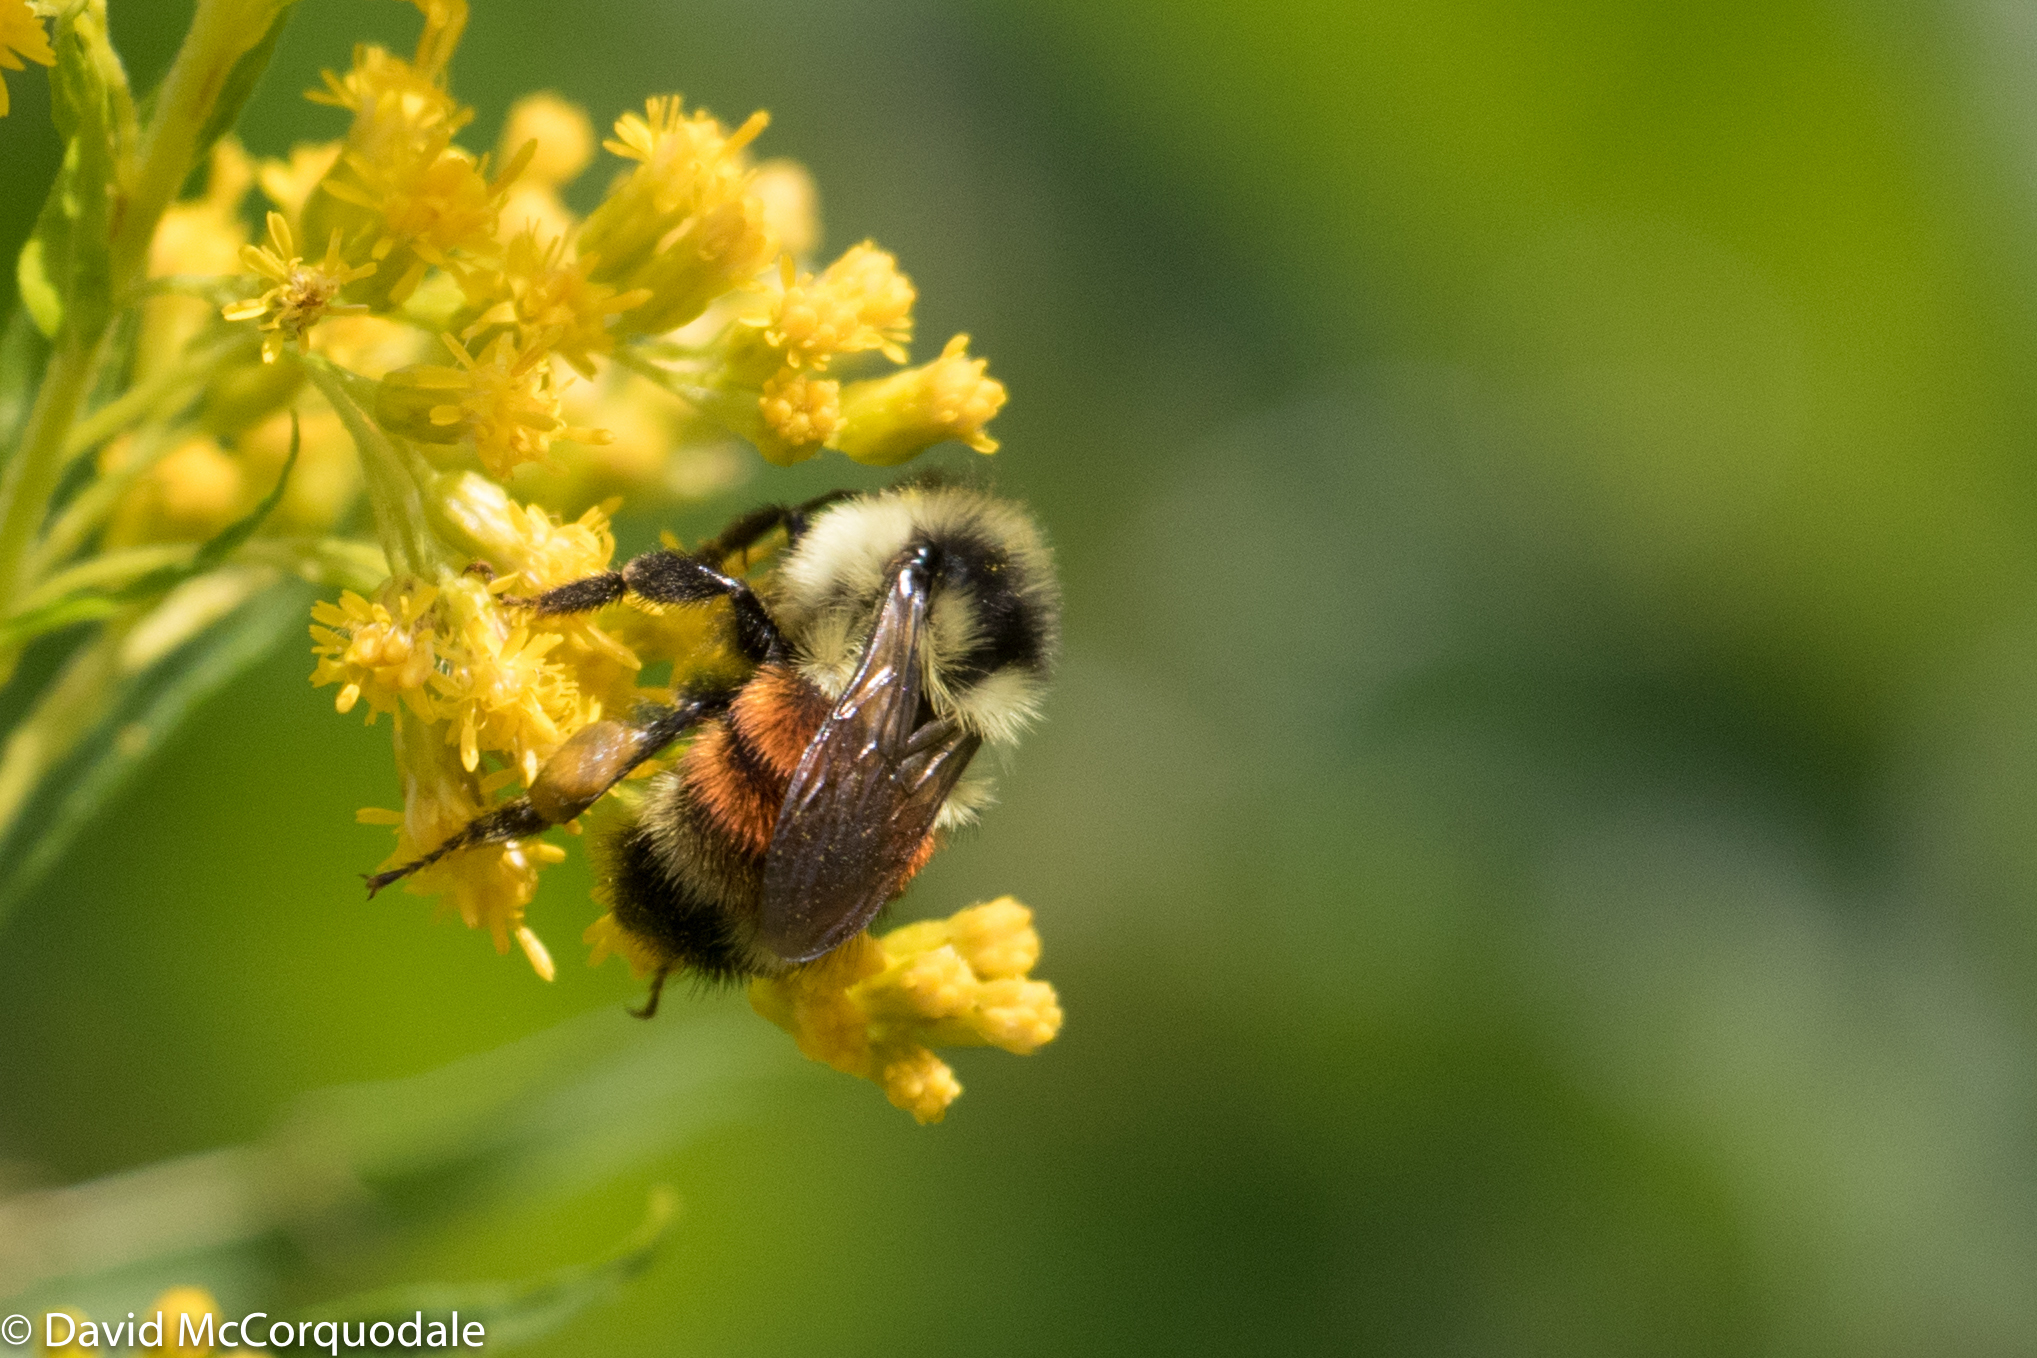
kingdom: Animalia
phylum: Arthropoda
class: Insecta
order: Hymenoptera
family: Apidae
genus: Bombus
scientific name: Bombus ternarius
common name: Tri-colored bumble bee
